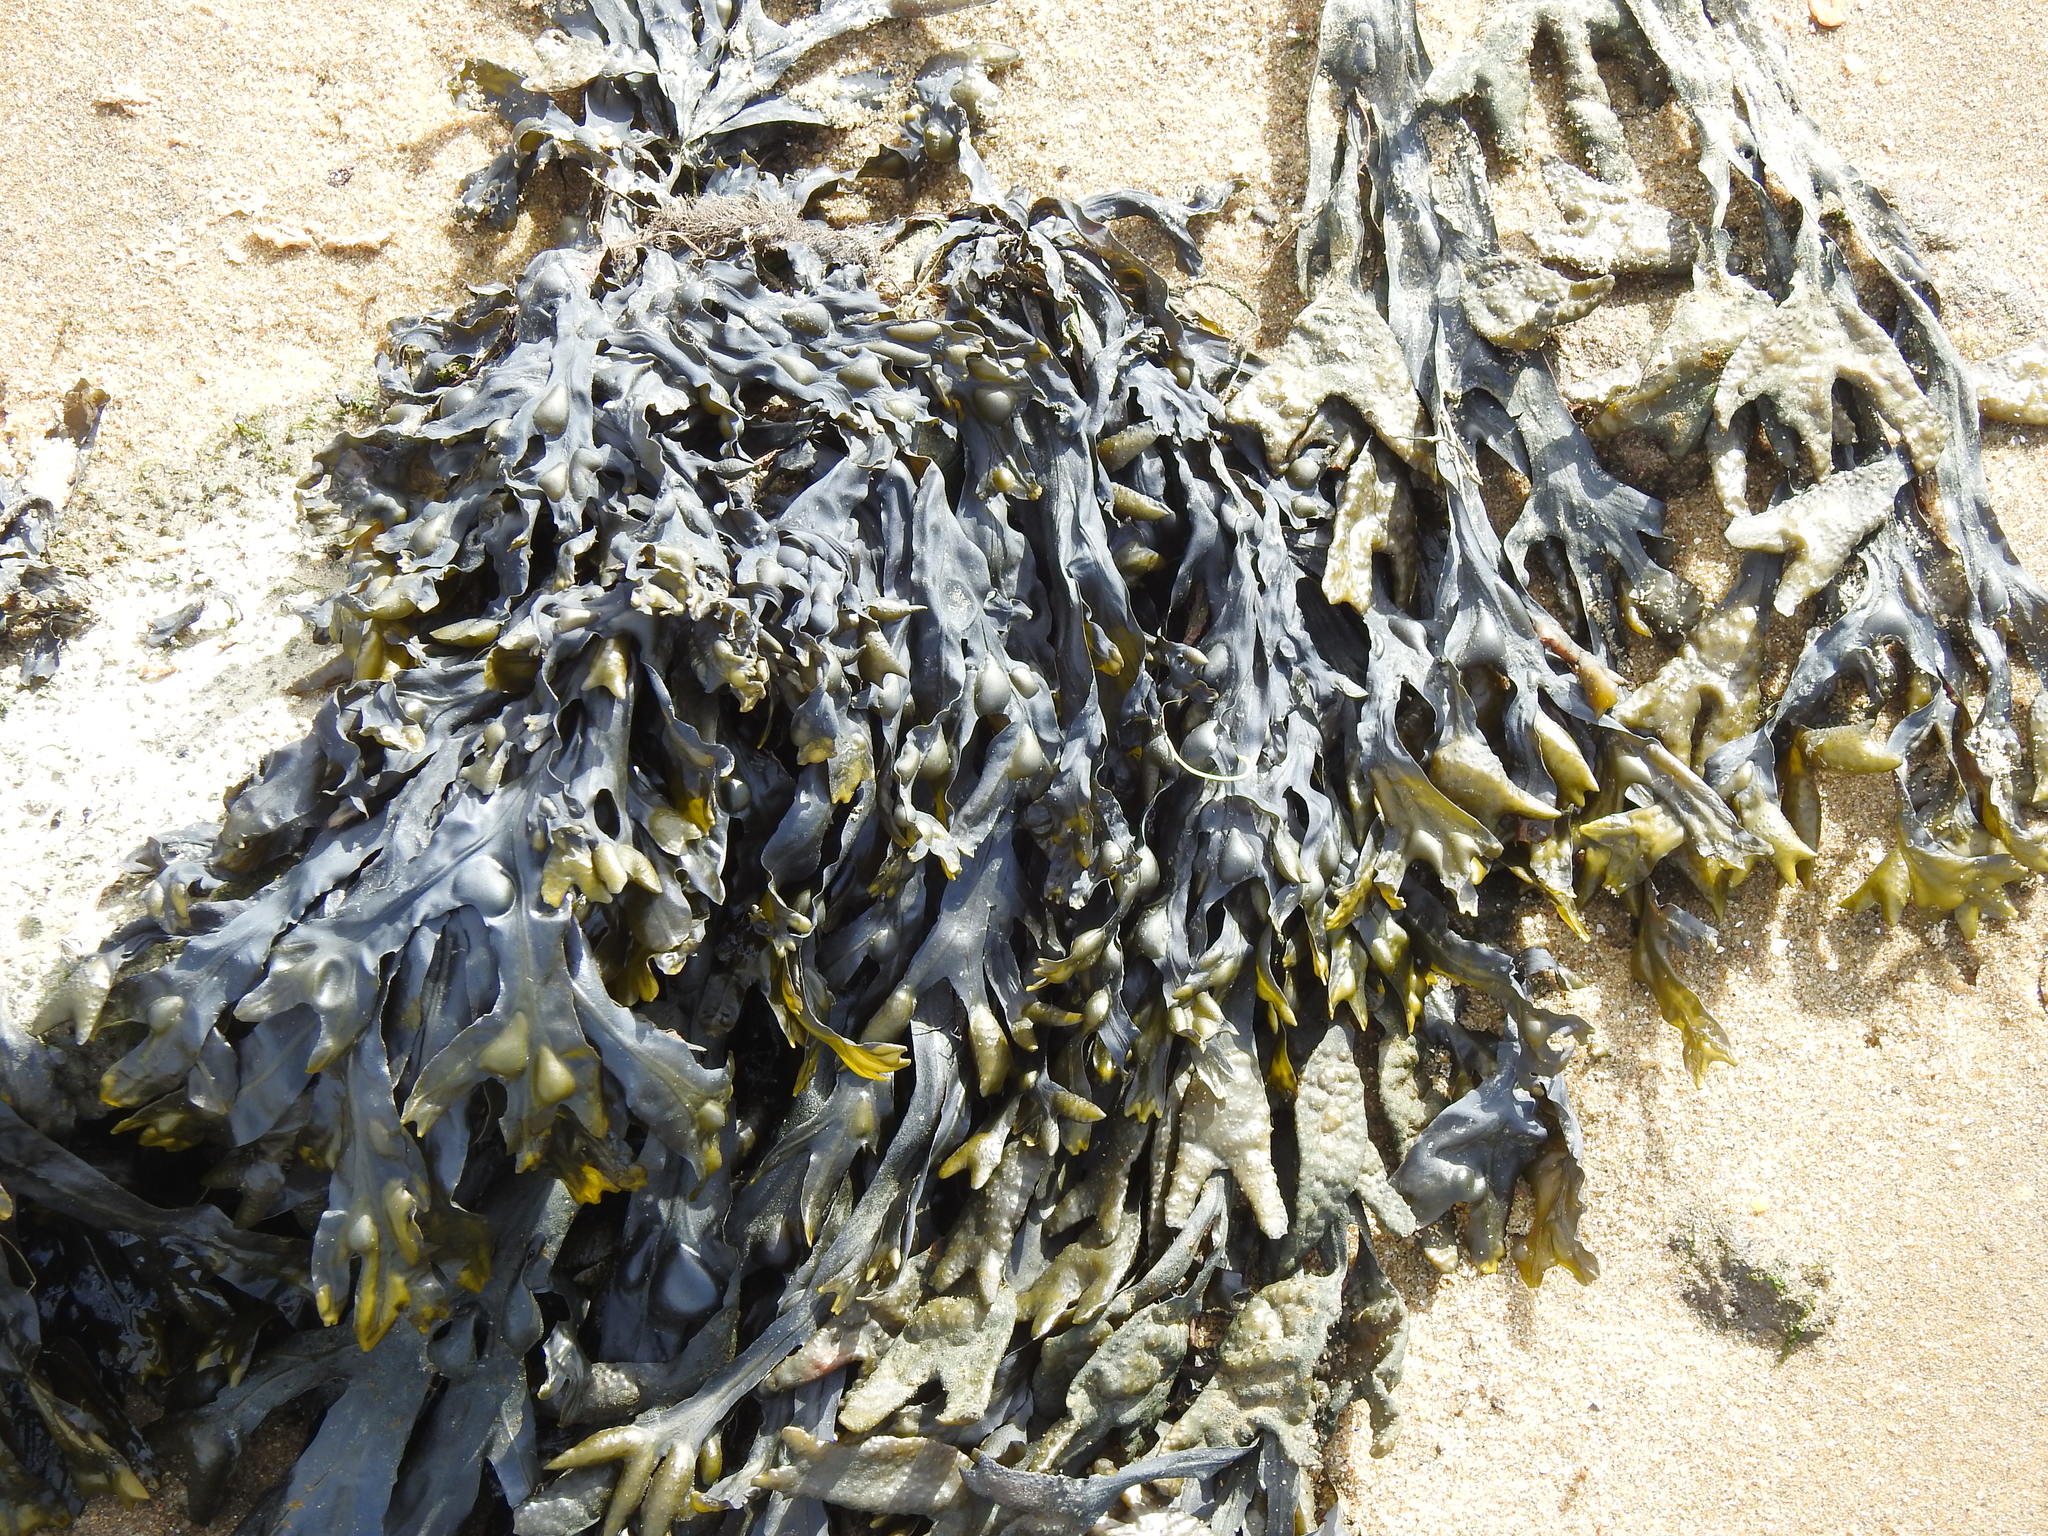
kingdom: Chromista
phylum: Ochrophyta
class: Phaeophyceae
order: Fucales
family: Fucaceae
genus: Fucus
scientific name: Fucus vesiculosus
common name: Bladder wrack
